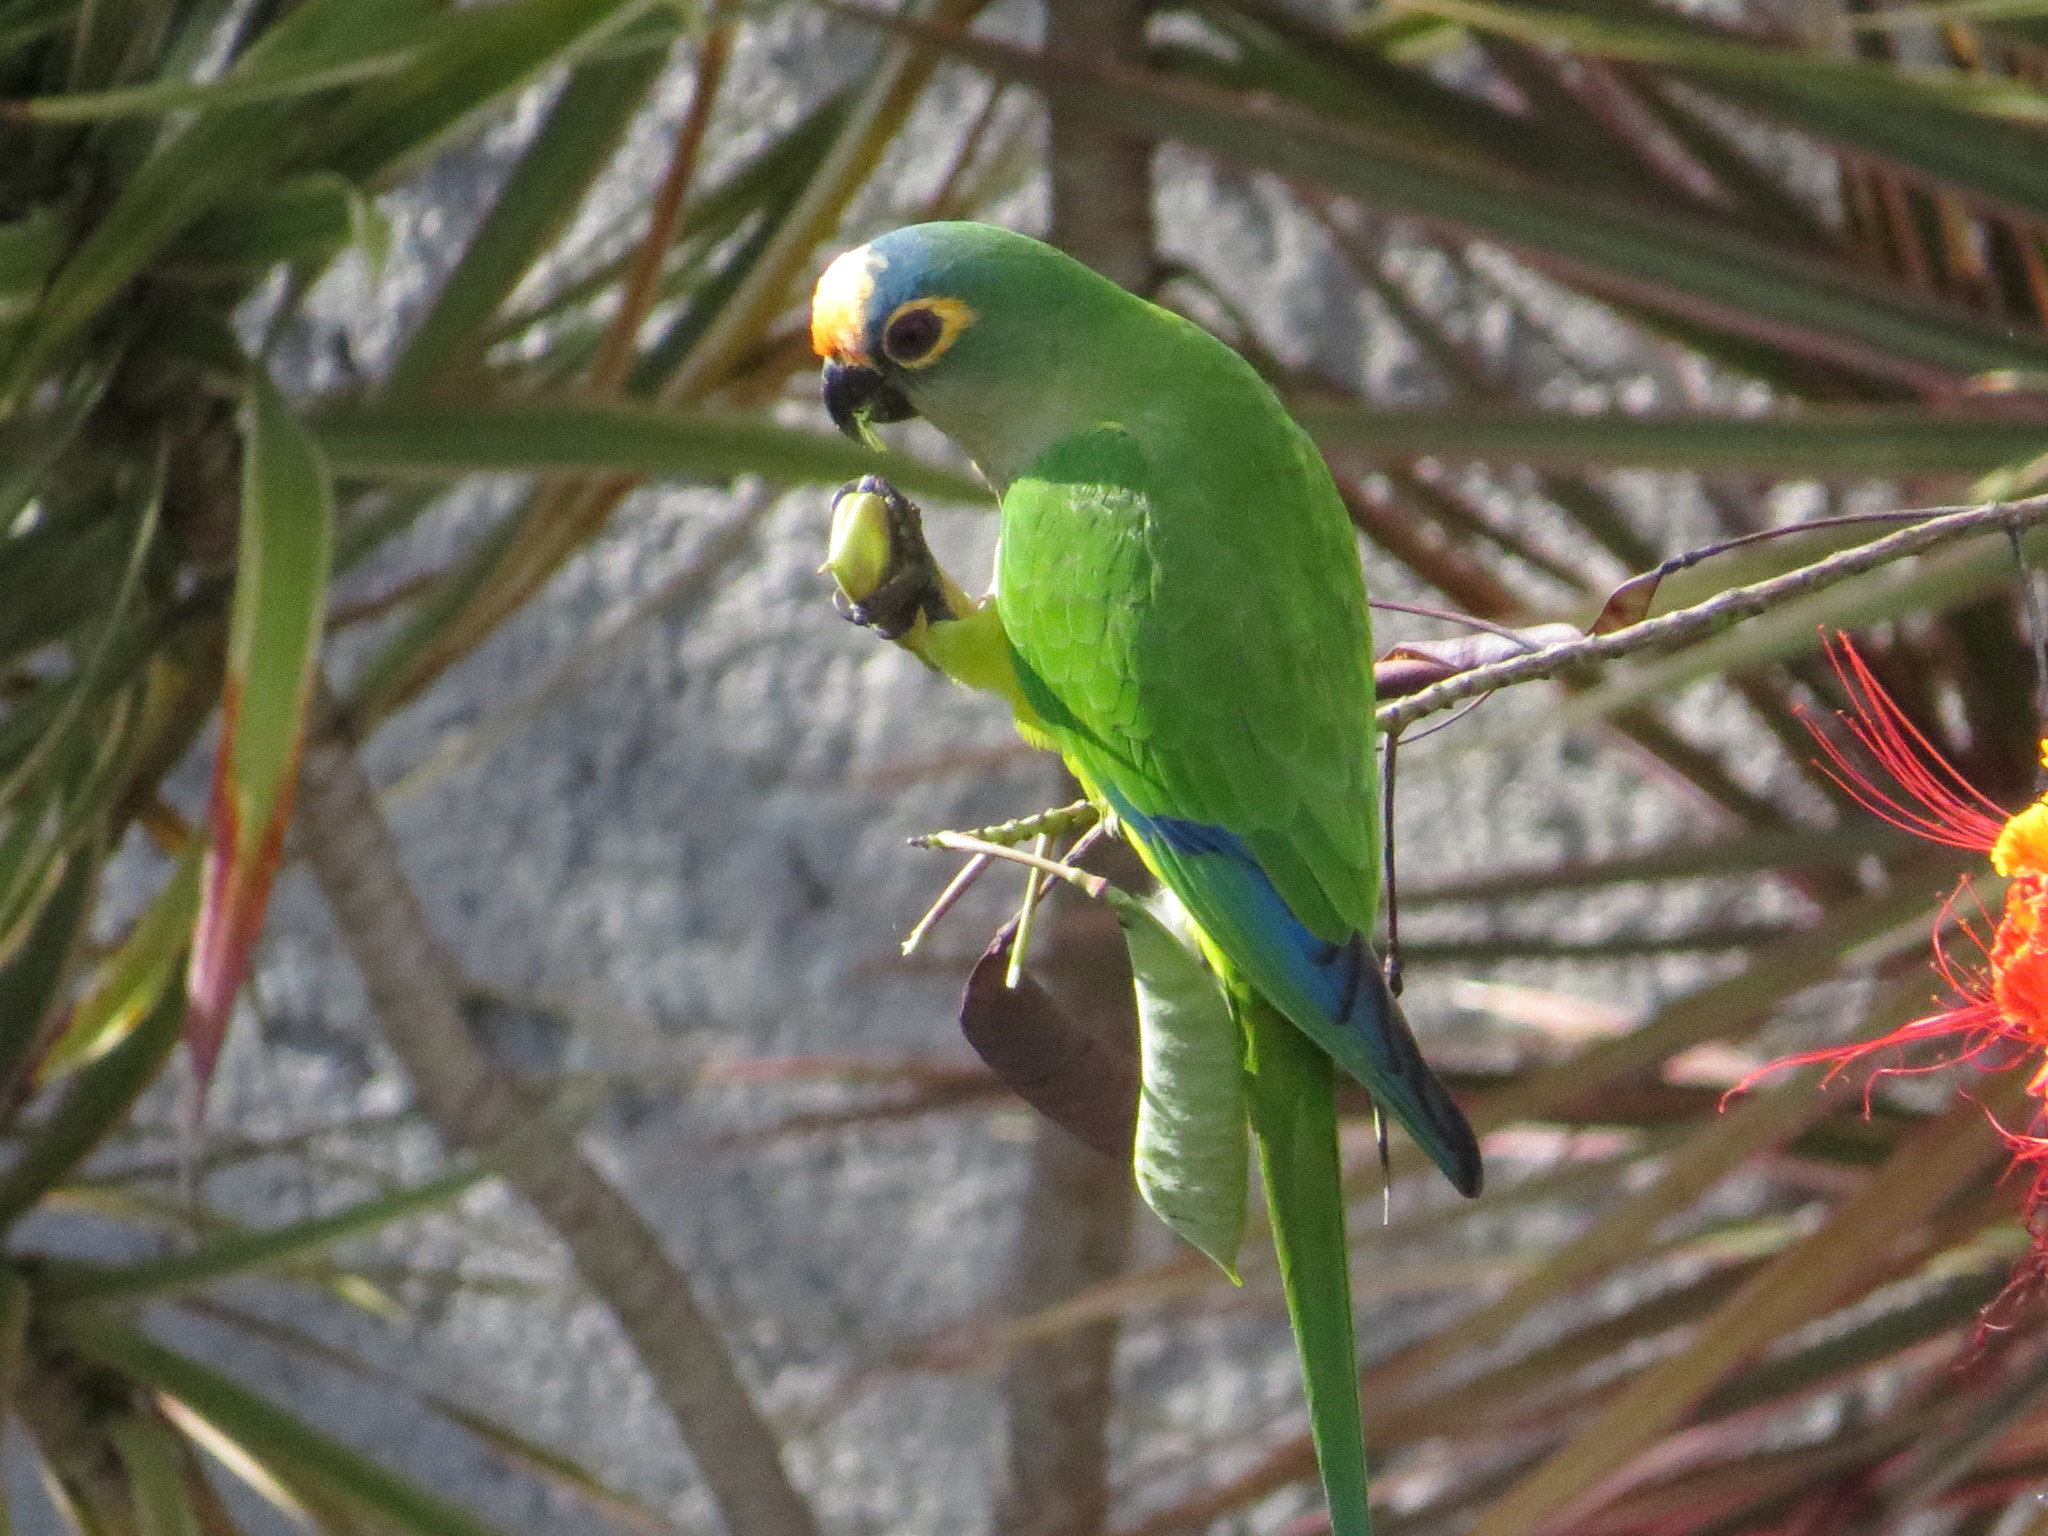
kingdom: Animalia
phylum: Chordata
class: Aves
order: Psittaciformes
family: Psittacidae
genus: Aratinga
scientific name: Aratinga aurea
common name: Peach-fronted parakeet
